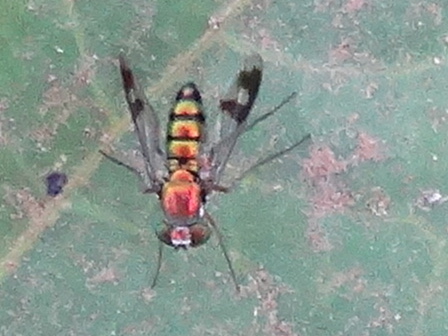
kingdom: Animalia
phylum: Arthropoda
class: Insecta
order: Diptera
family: Dolichopodidae
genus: Condylostylus
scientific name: Condylostylus
